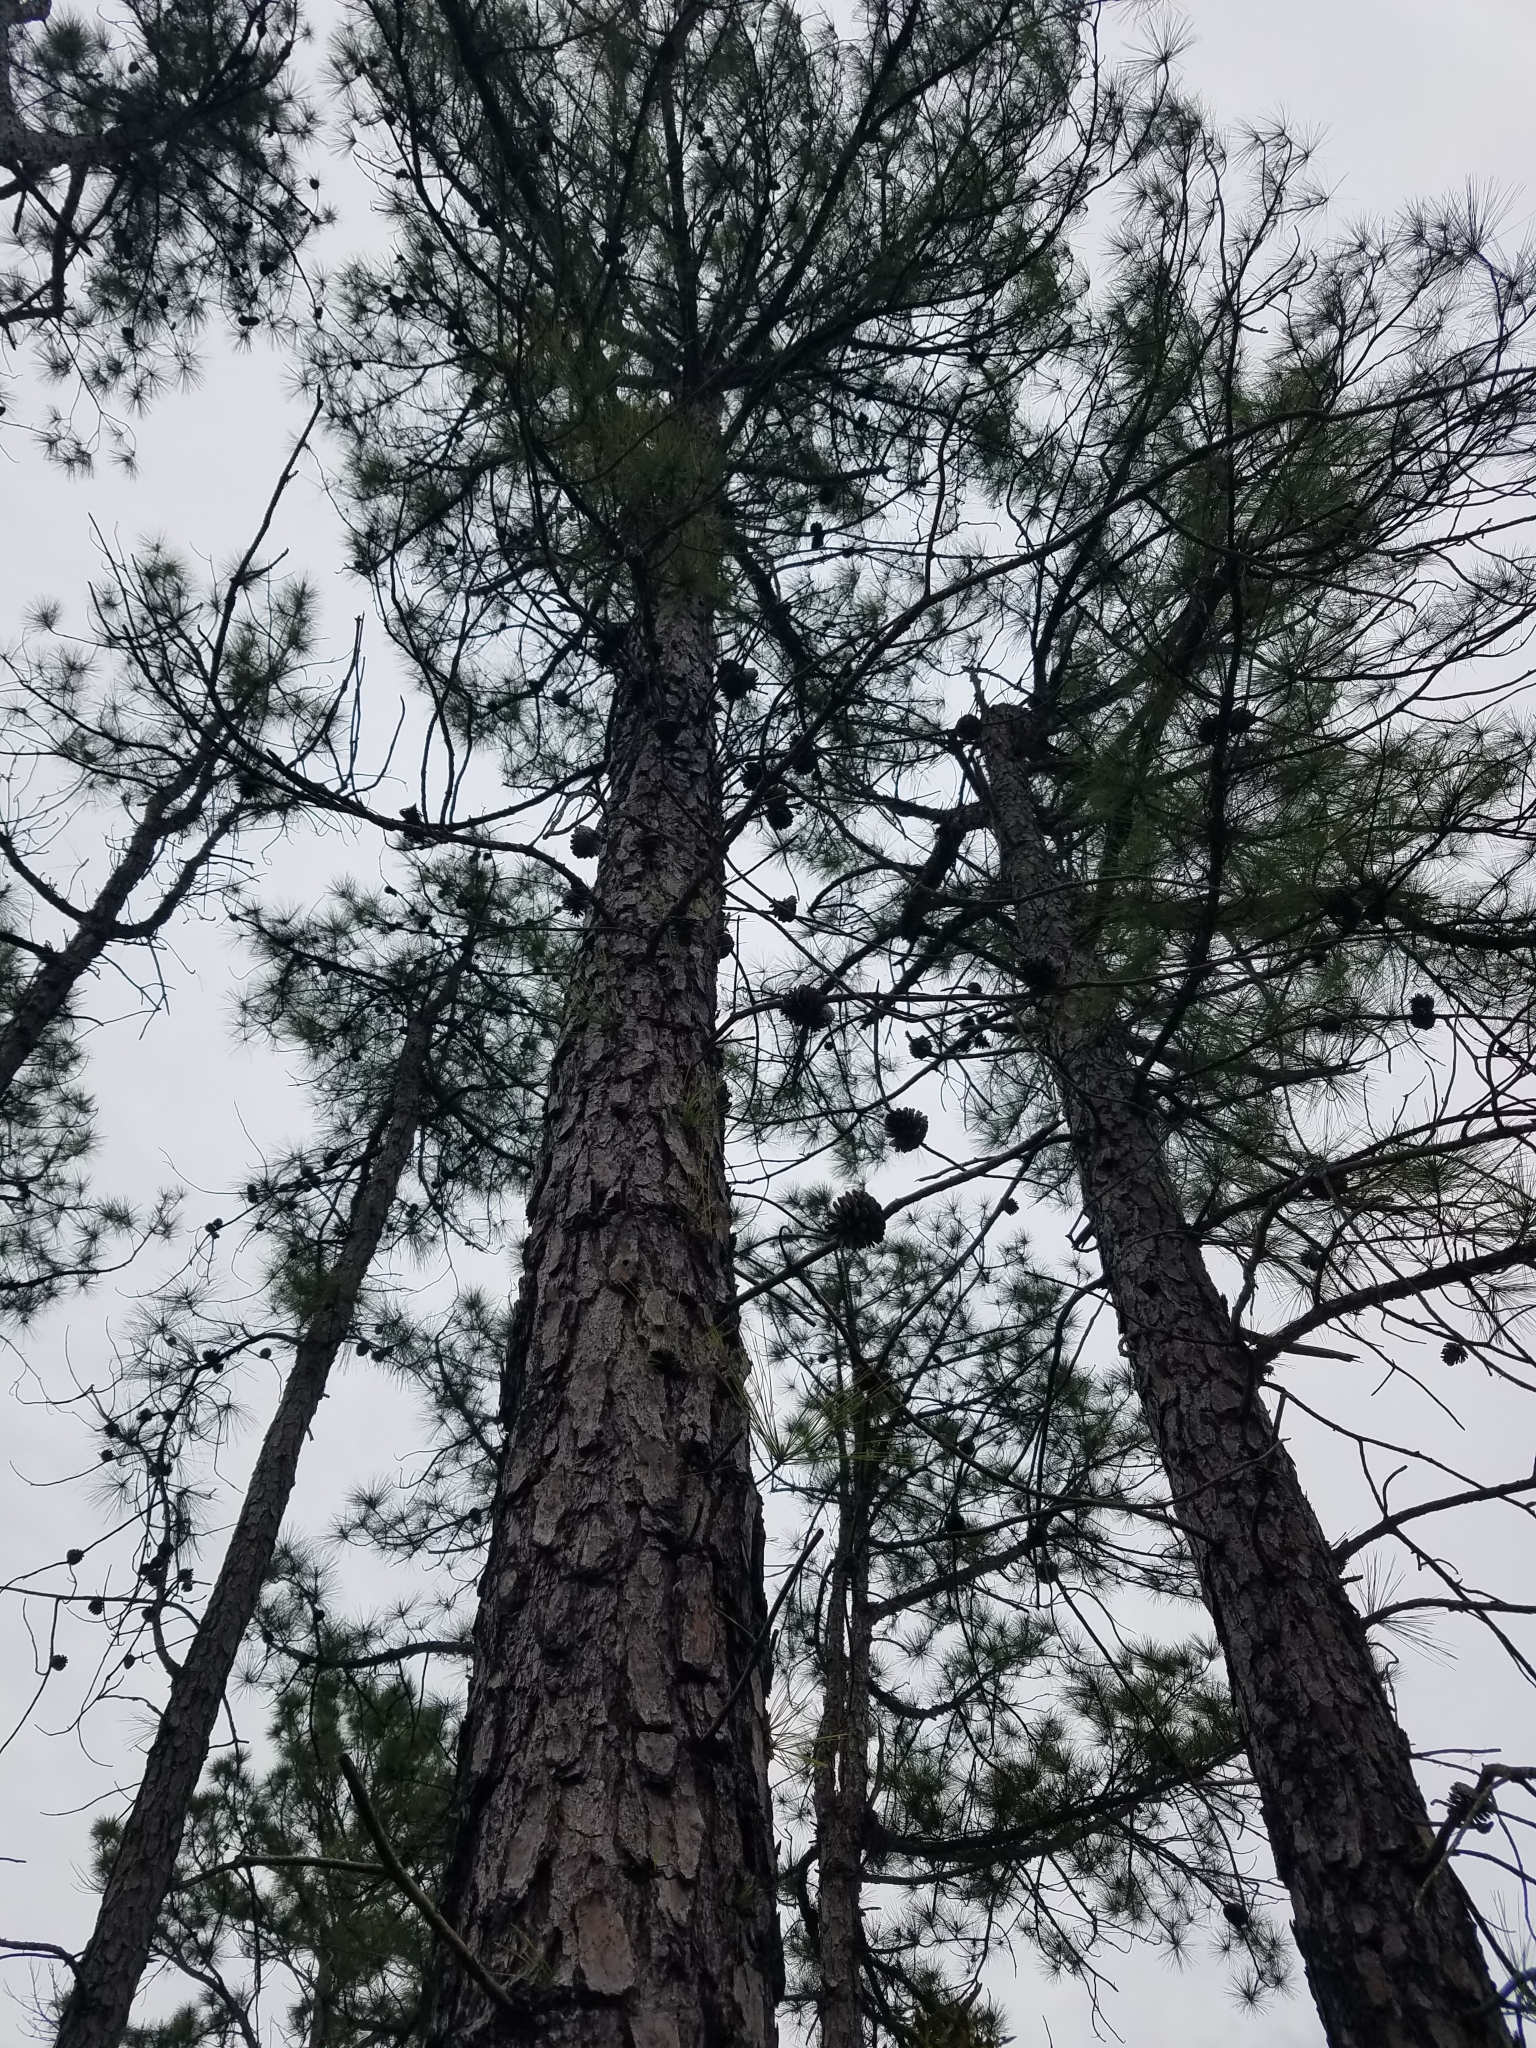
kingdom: Plantae
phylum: Tracheophyta
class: Pinopsida
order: Pinales
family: Pinaceae
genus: Pinus
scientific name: Pinus serotina
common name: Marsh pine
